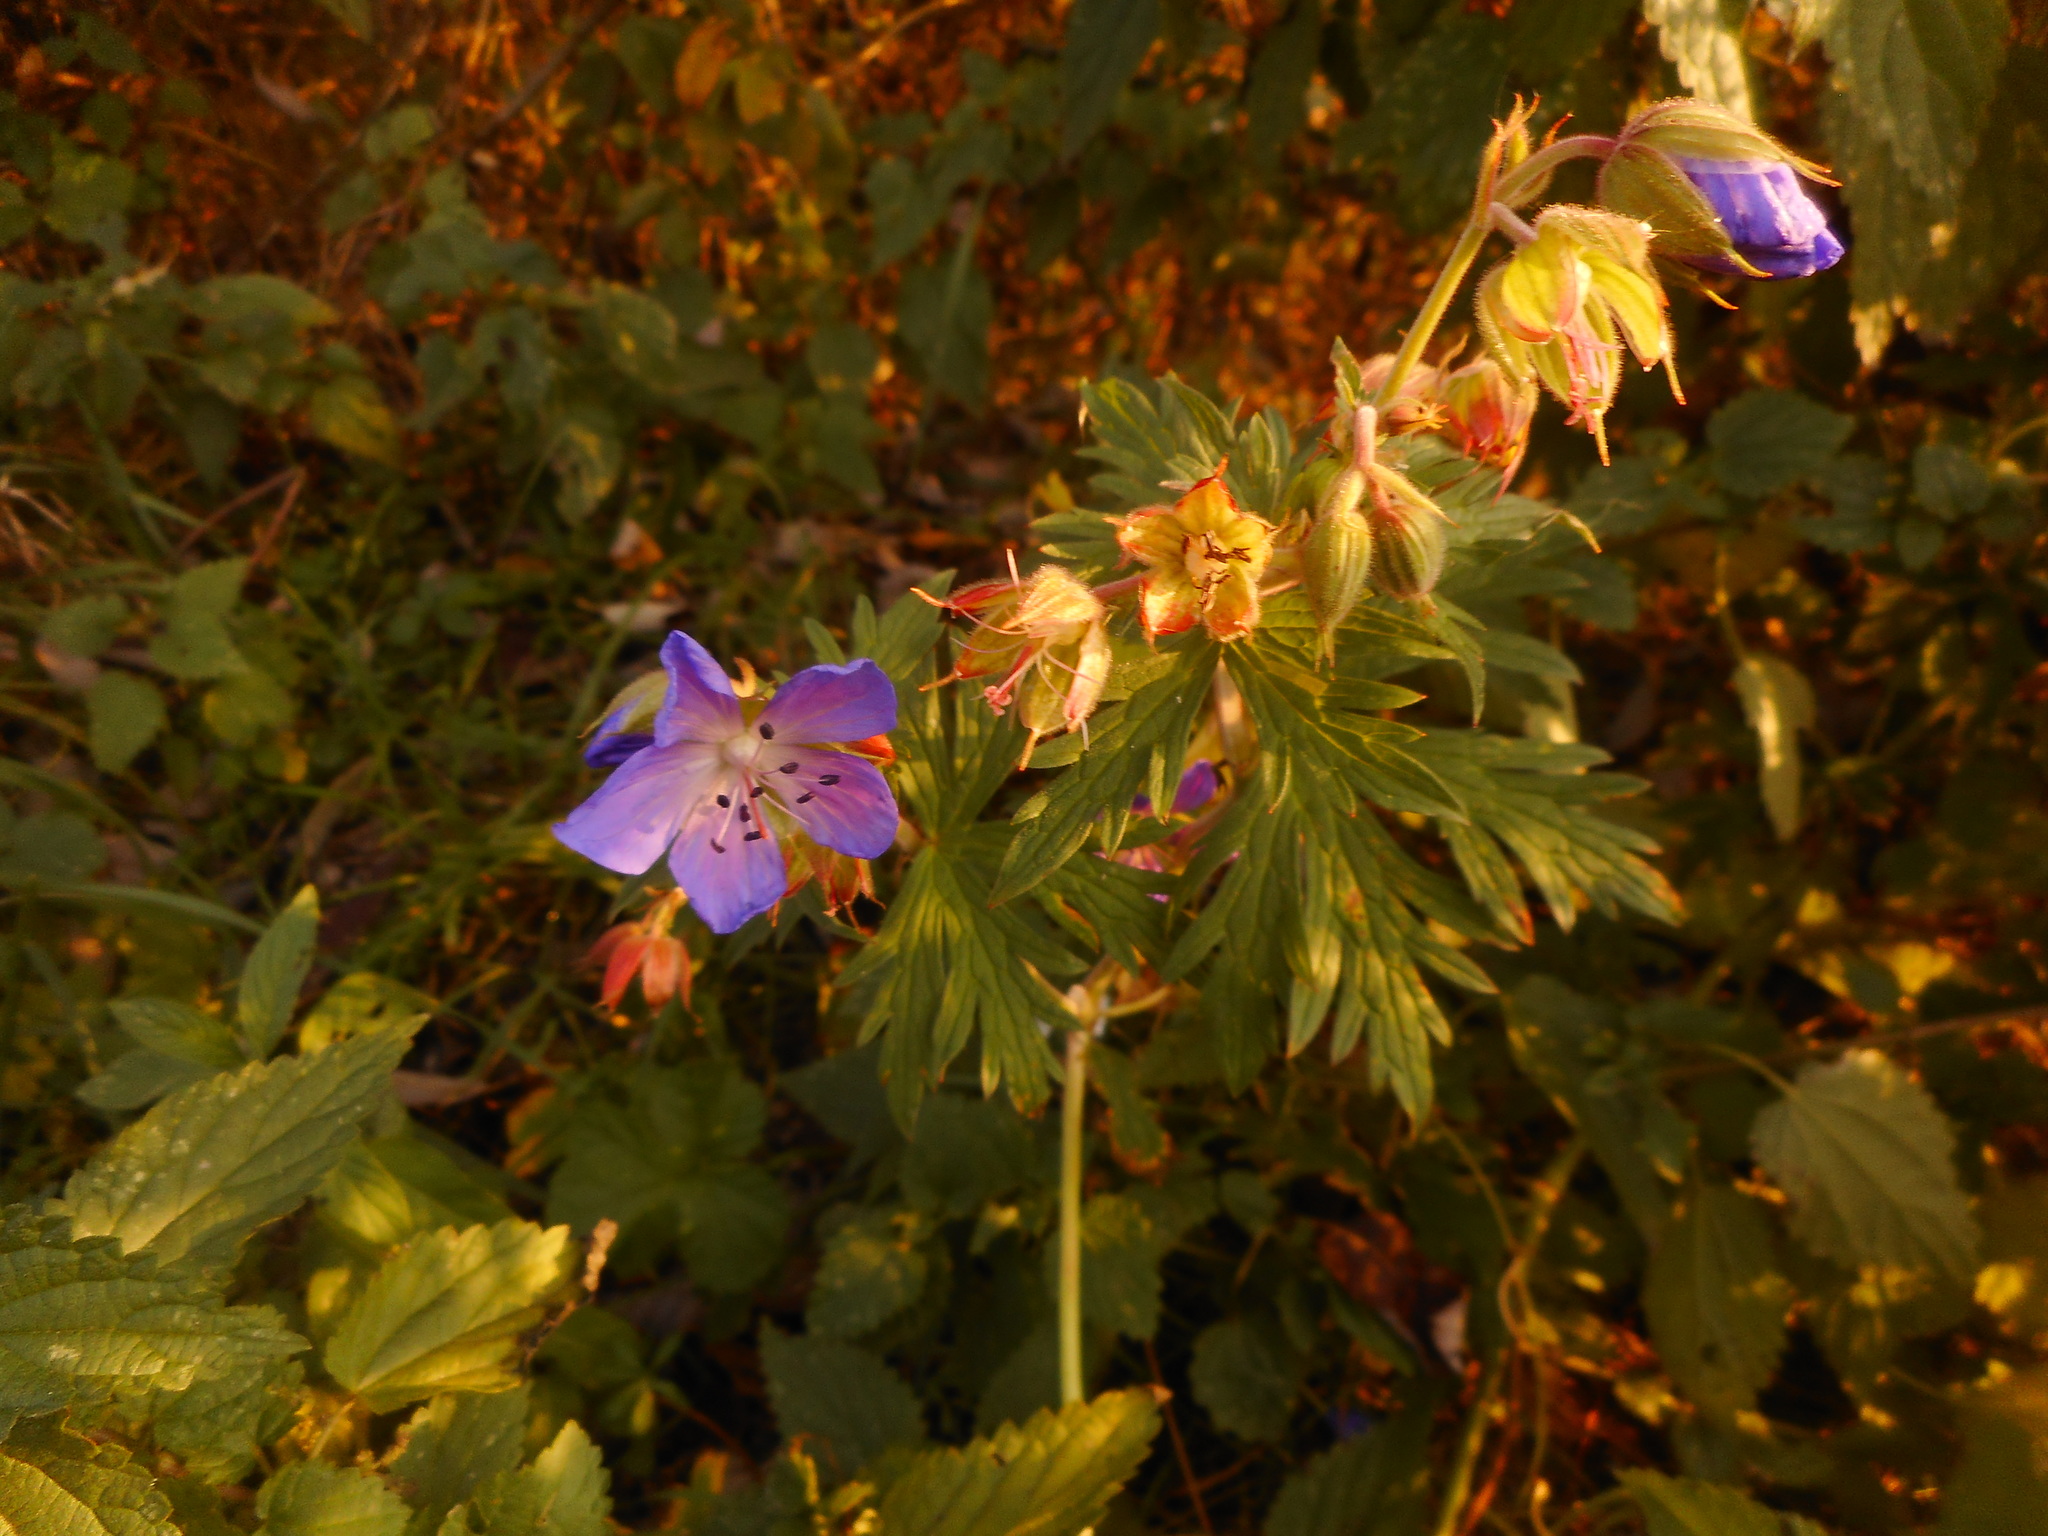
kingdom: Plantae
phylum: Tracheophyta
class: Magnoliopsida
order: Geraniales
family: Geraniaceae
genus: Geranium
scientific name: Geranium pratense
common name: Meadow crane's-bill
